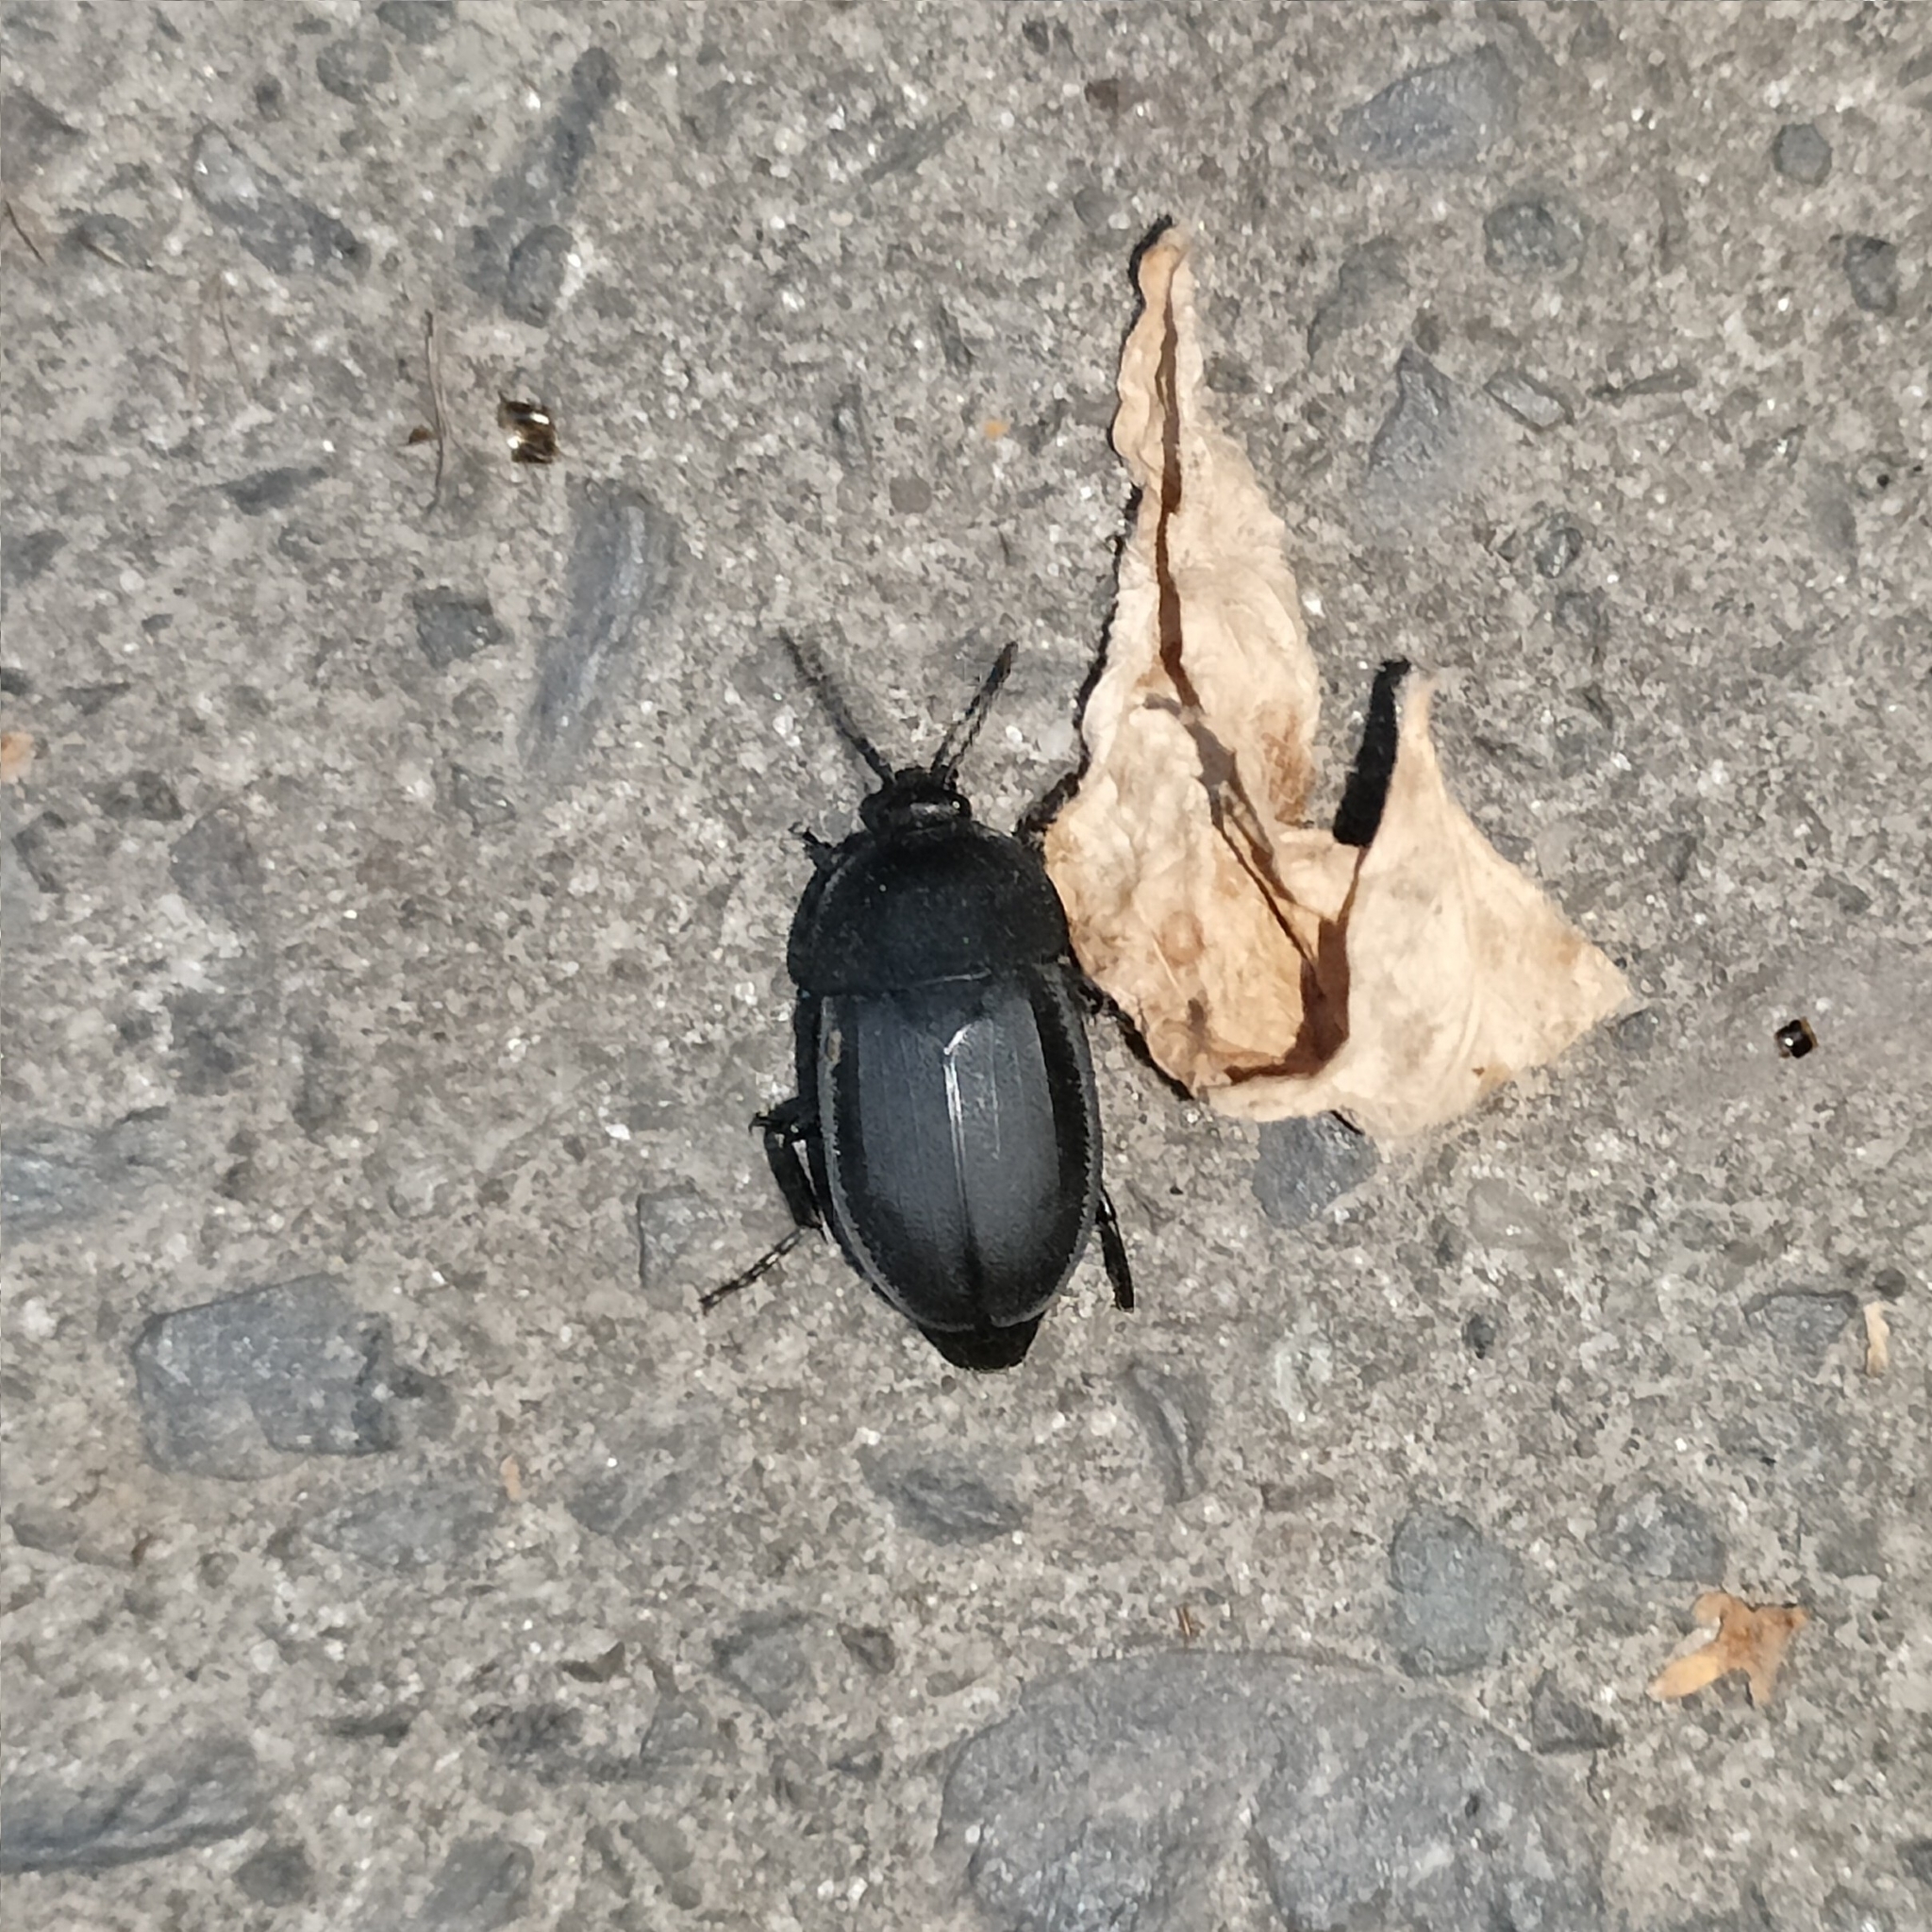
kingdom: Animalia
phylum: Arthropoda
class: Insecta
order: Coleoptera
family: Staphylinidae
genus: Silpha
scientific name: Silpha obscura
